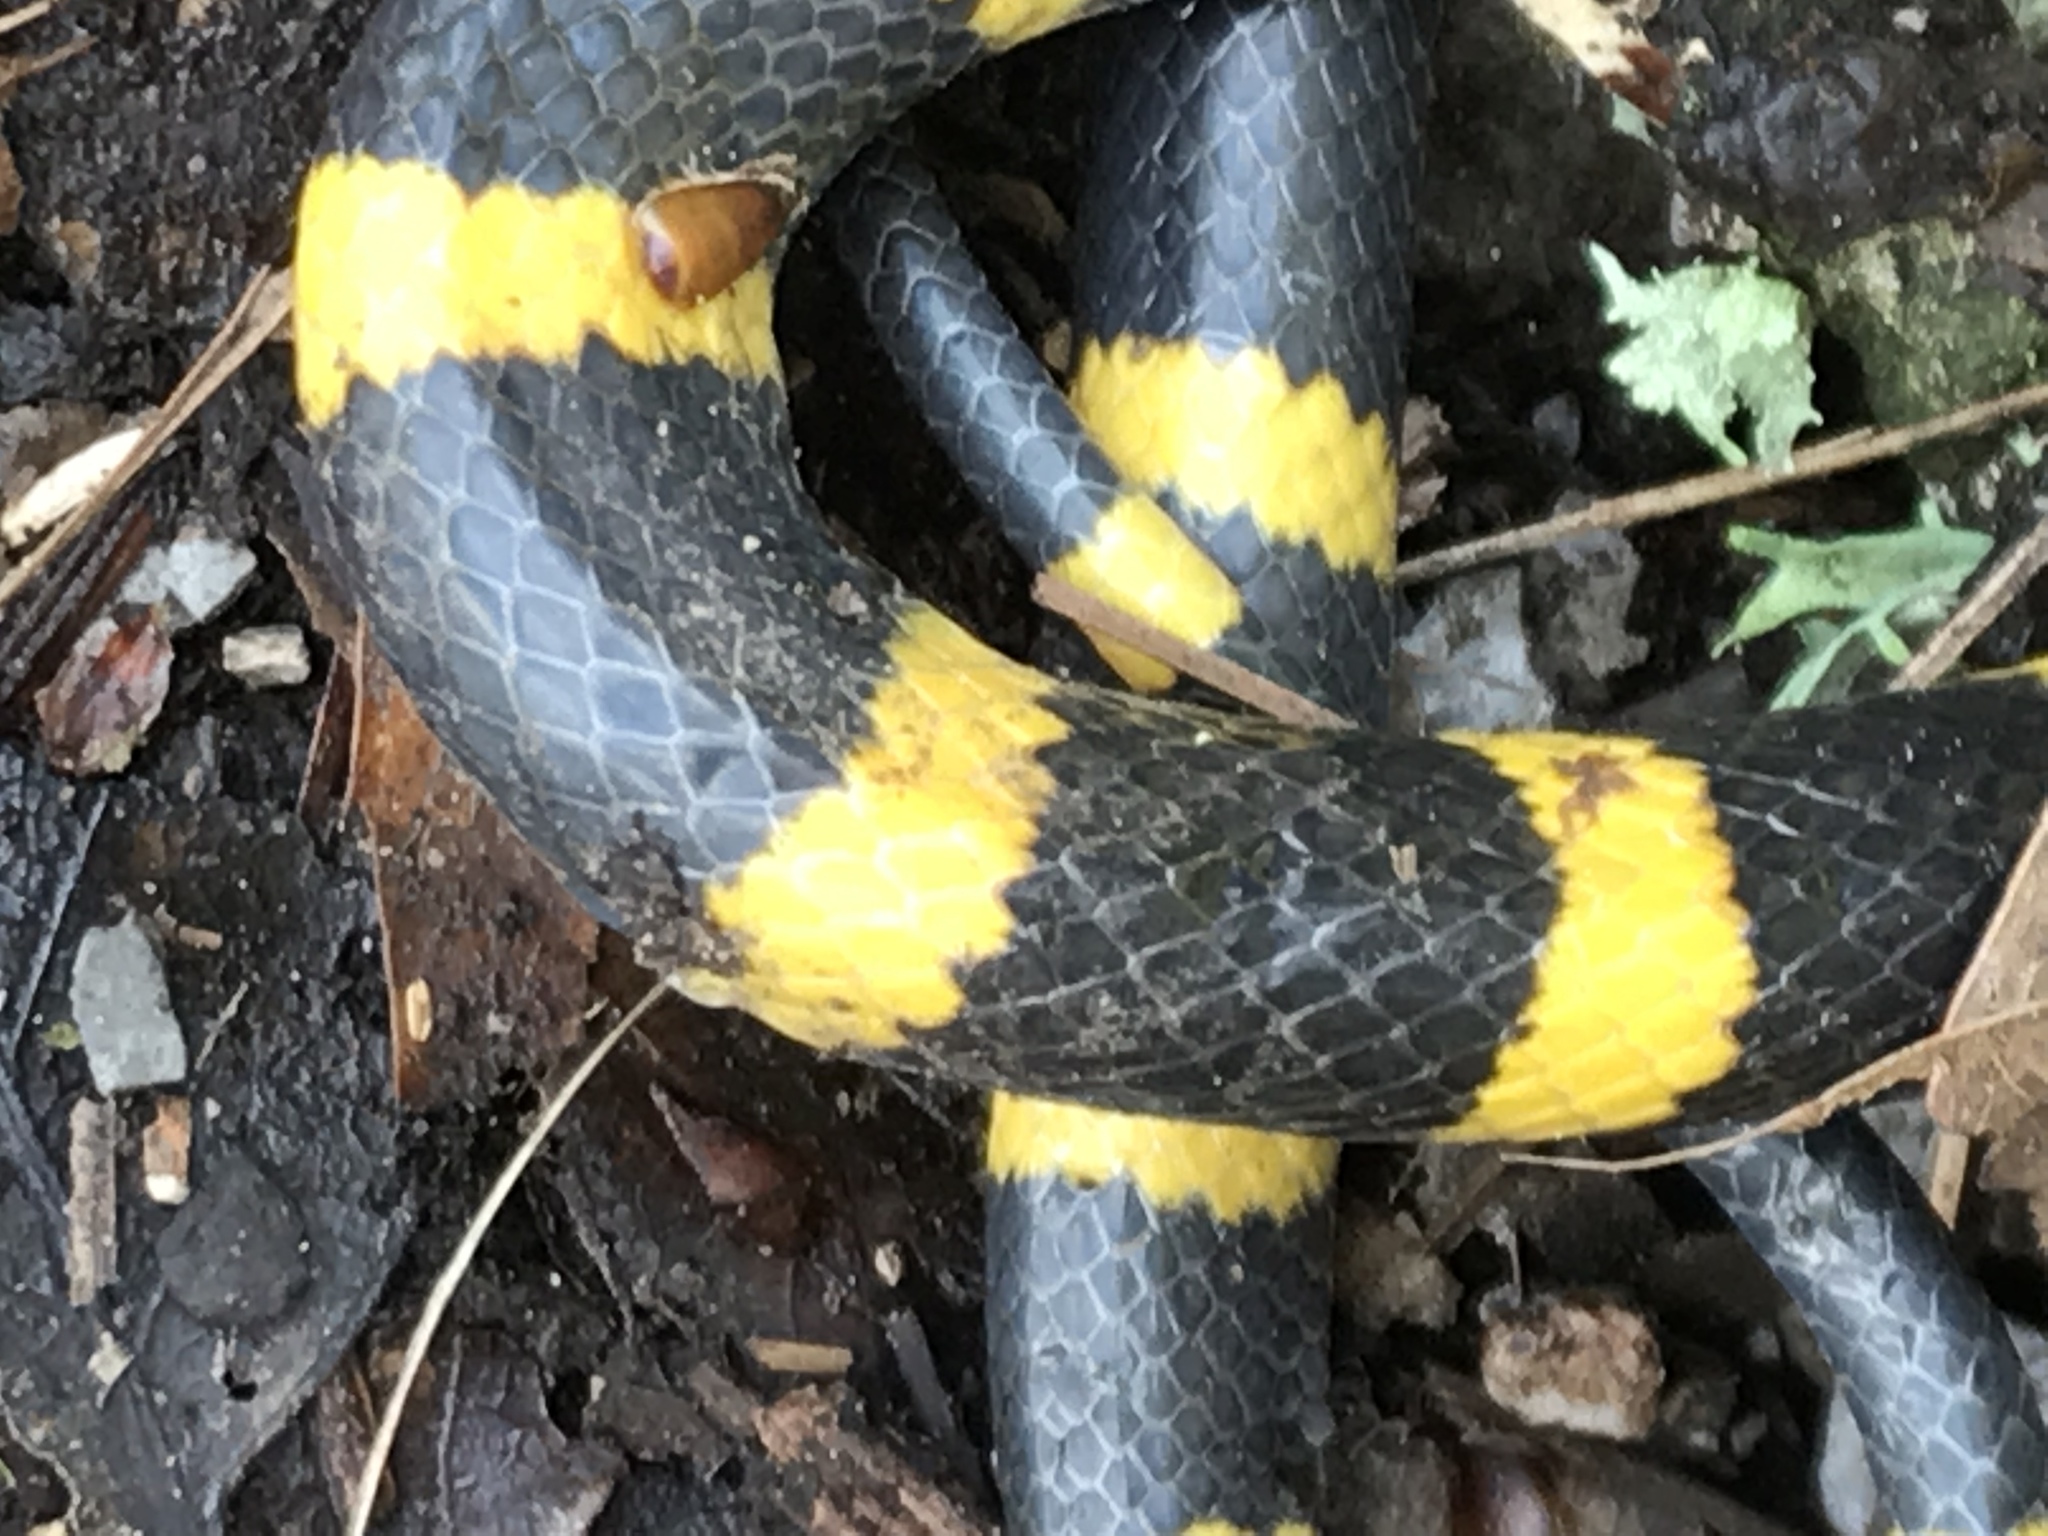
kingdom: Animalia
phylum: Chordata
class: Squamata
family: Colubridae
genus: Geophis
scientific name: Geophis
